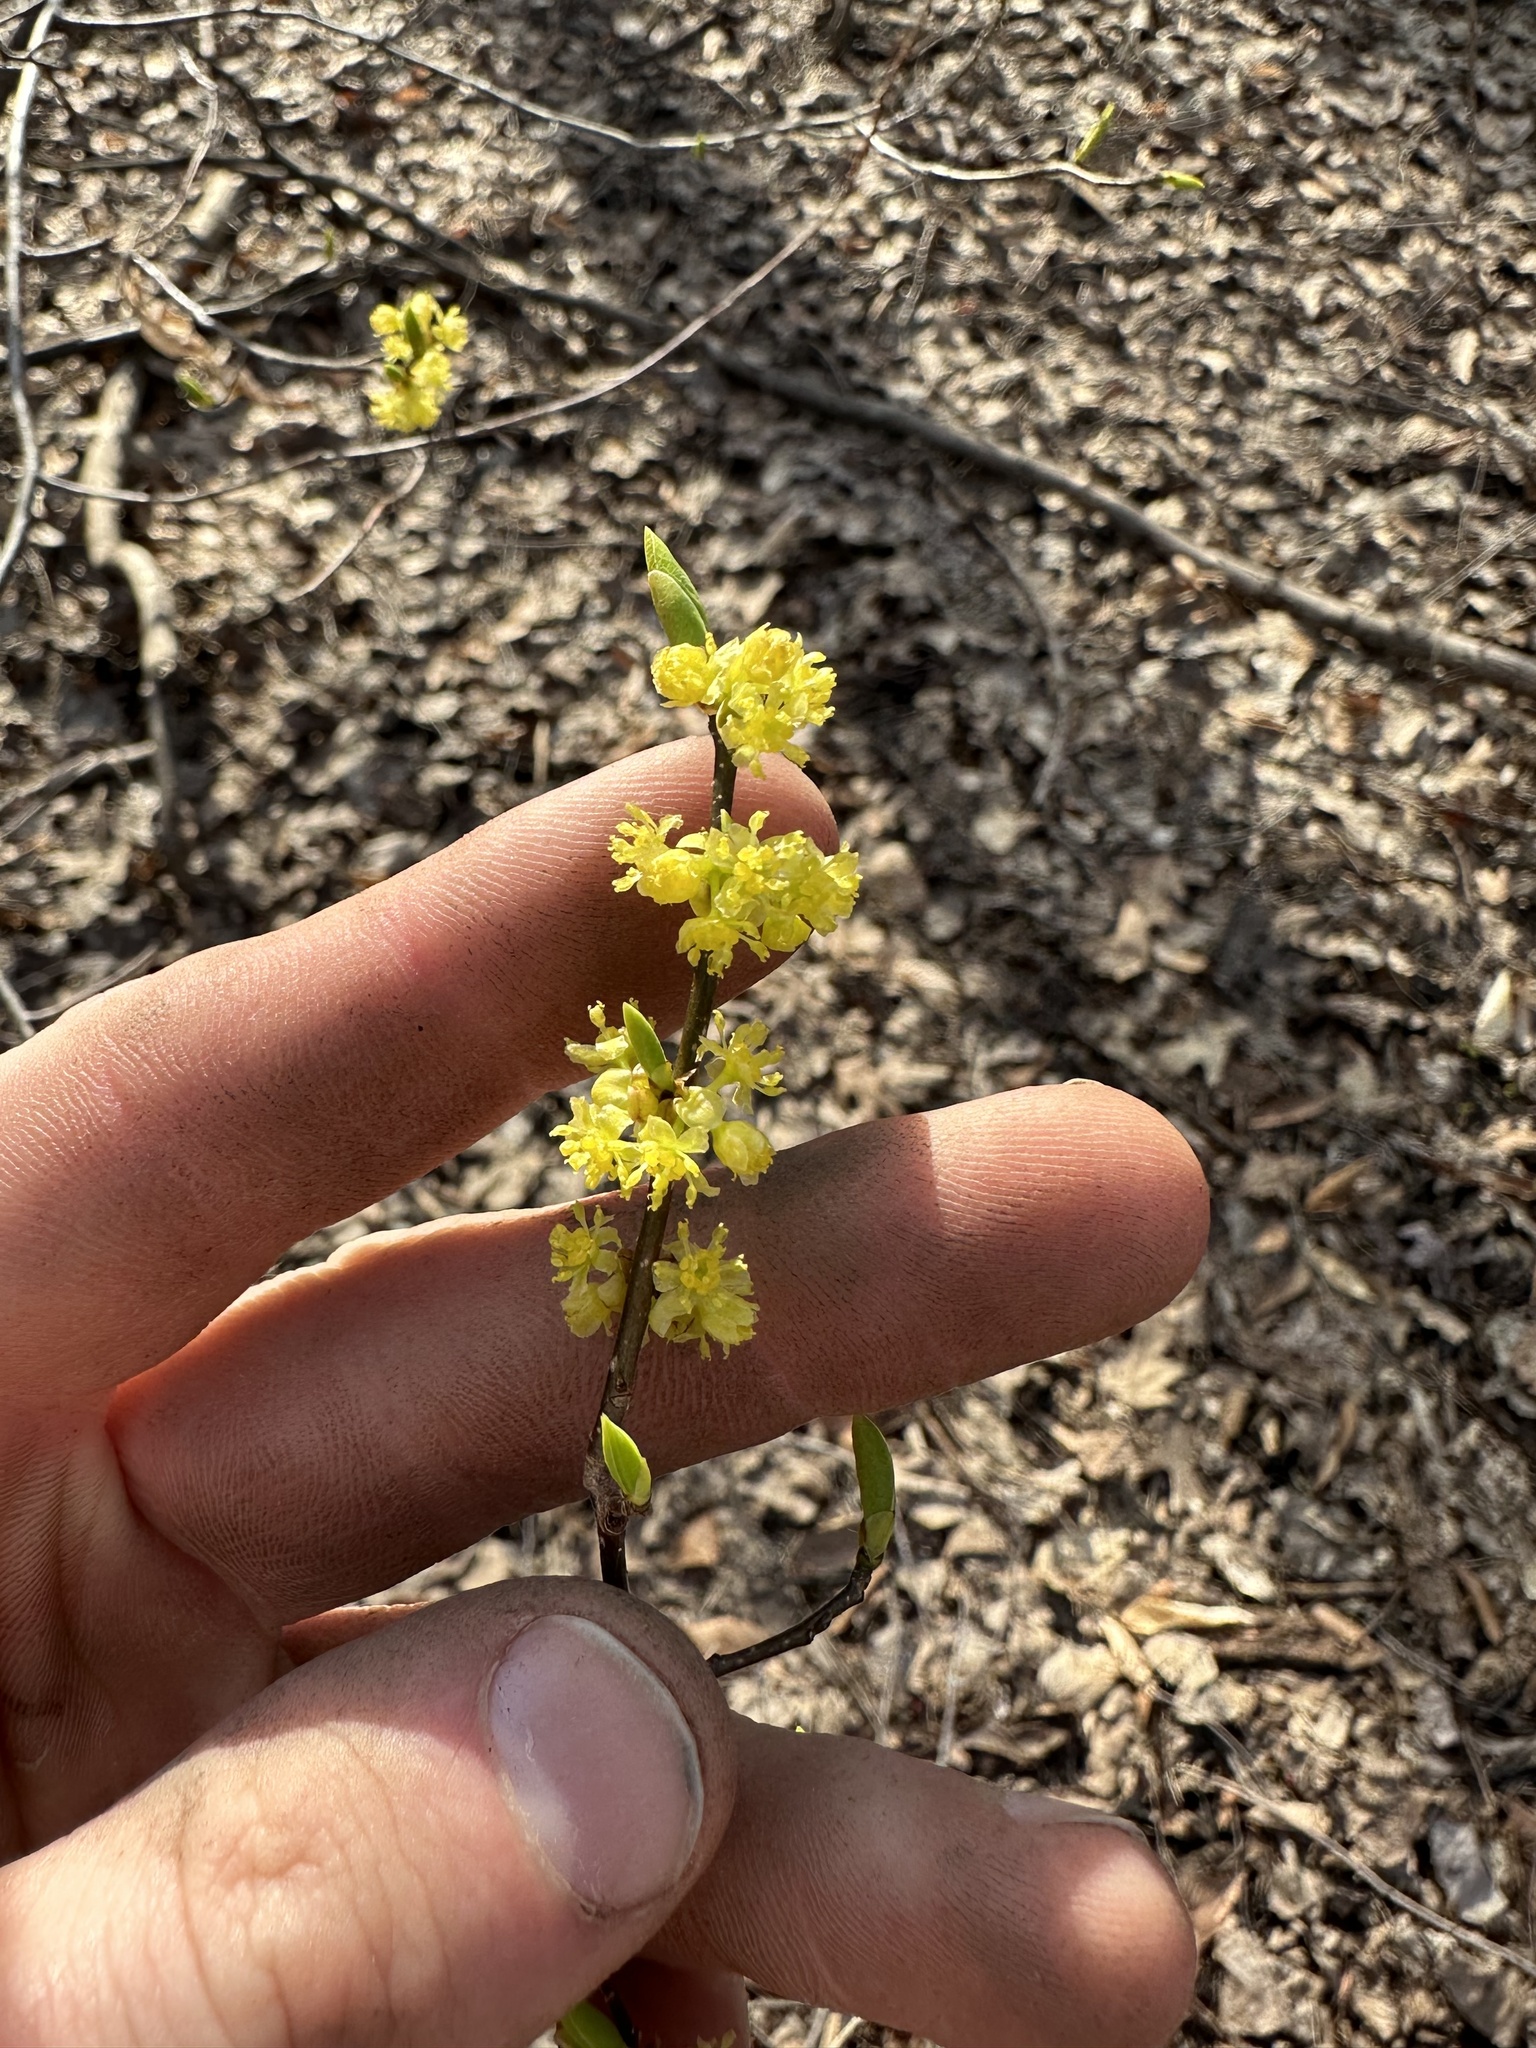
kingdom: Plantae
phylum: Tracheophyta
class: Magnoliopsida
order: Laurales
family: Lauraceae
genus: Lindera
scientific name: Lindera benzoin
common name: Spicebush
